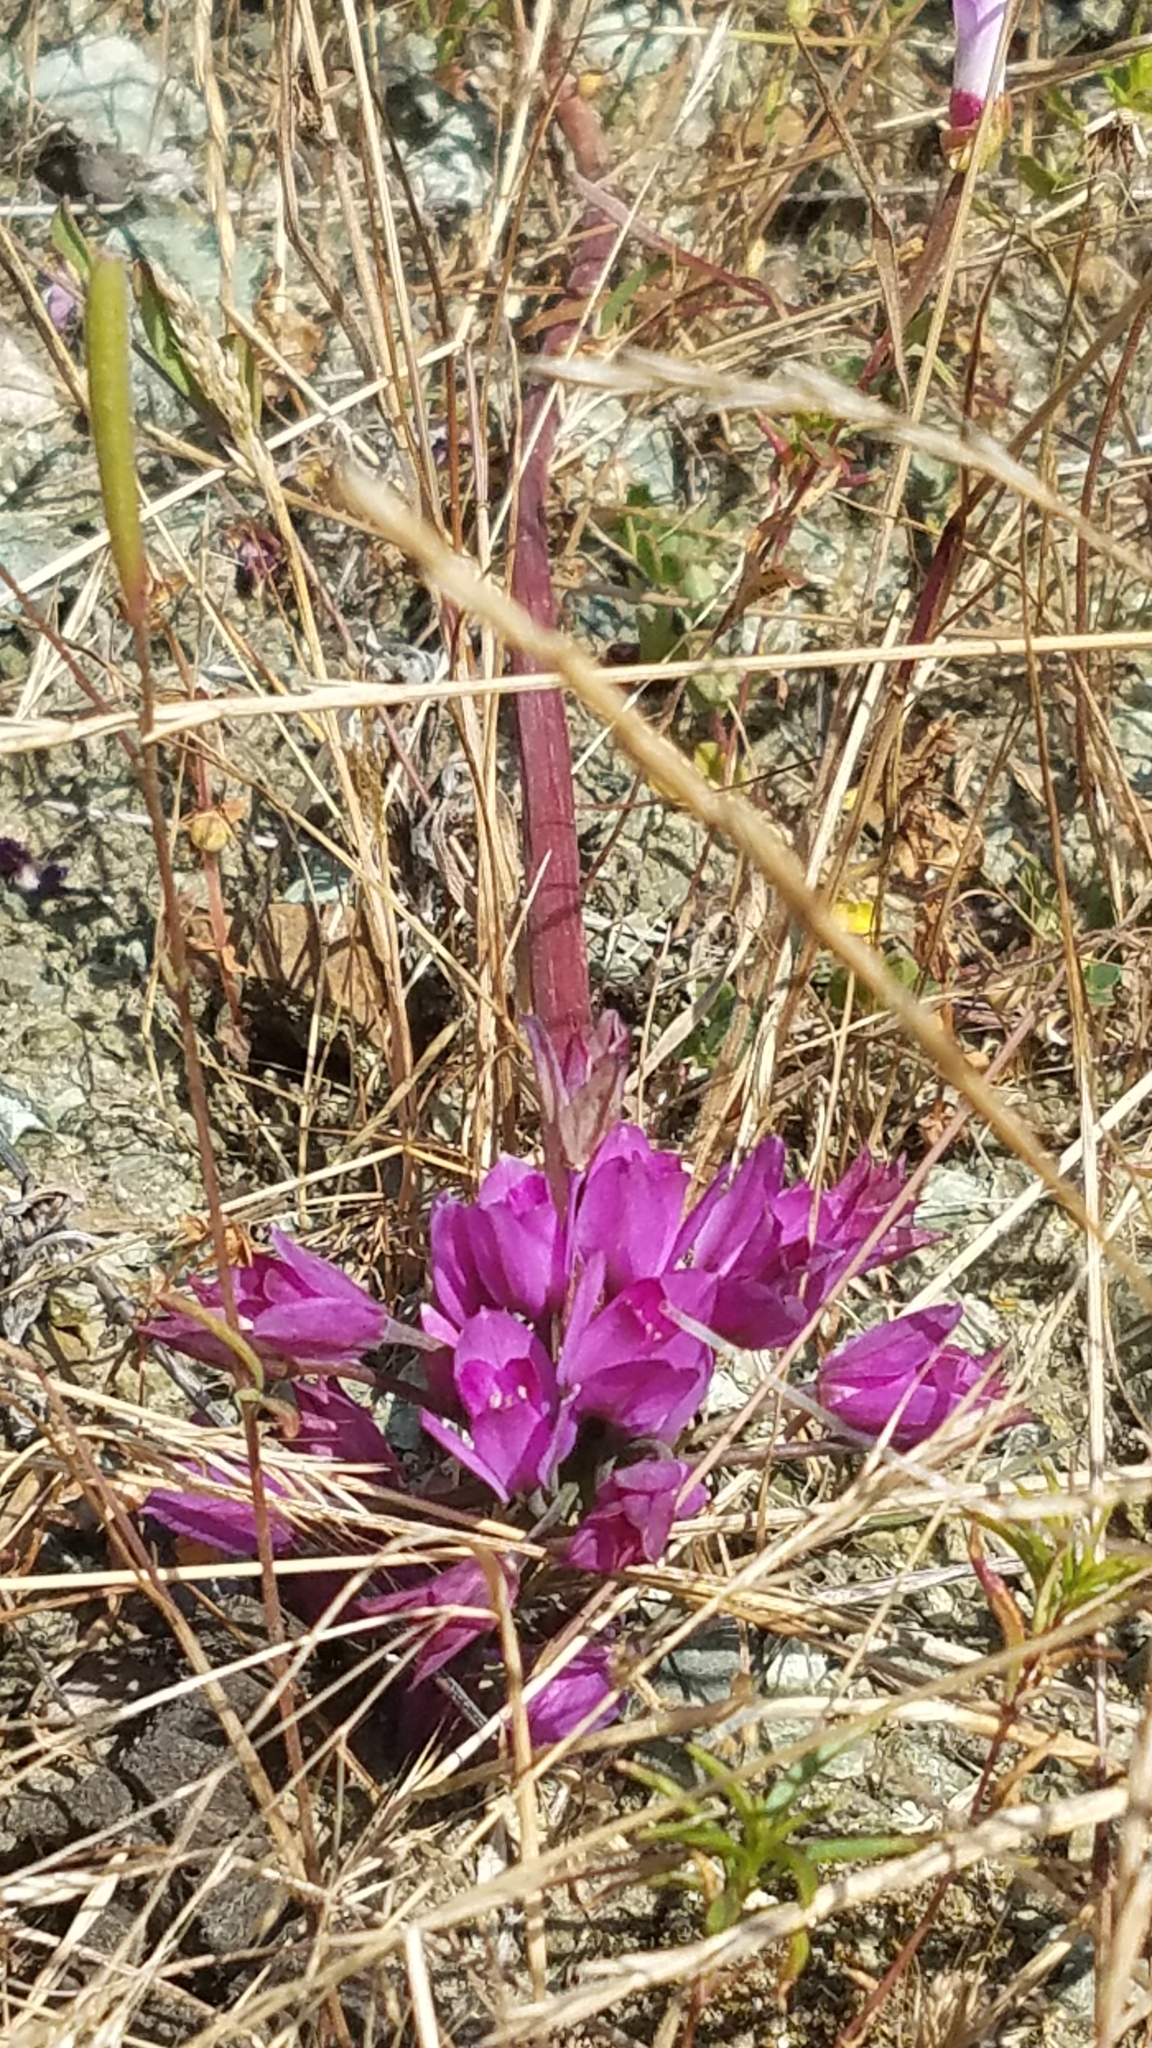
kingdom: Plantae
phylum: Tracheophyta
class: Liliopsida
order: Asparagales
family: Amaryllidaceae
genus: Allium
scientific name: Allium dichlamydeum
